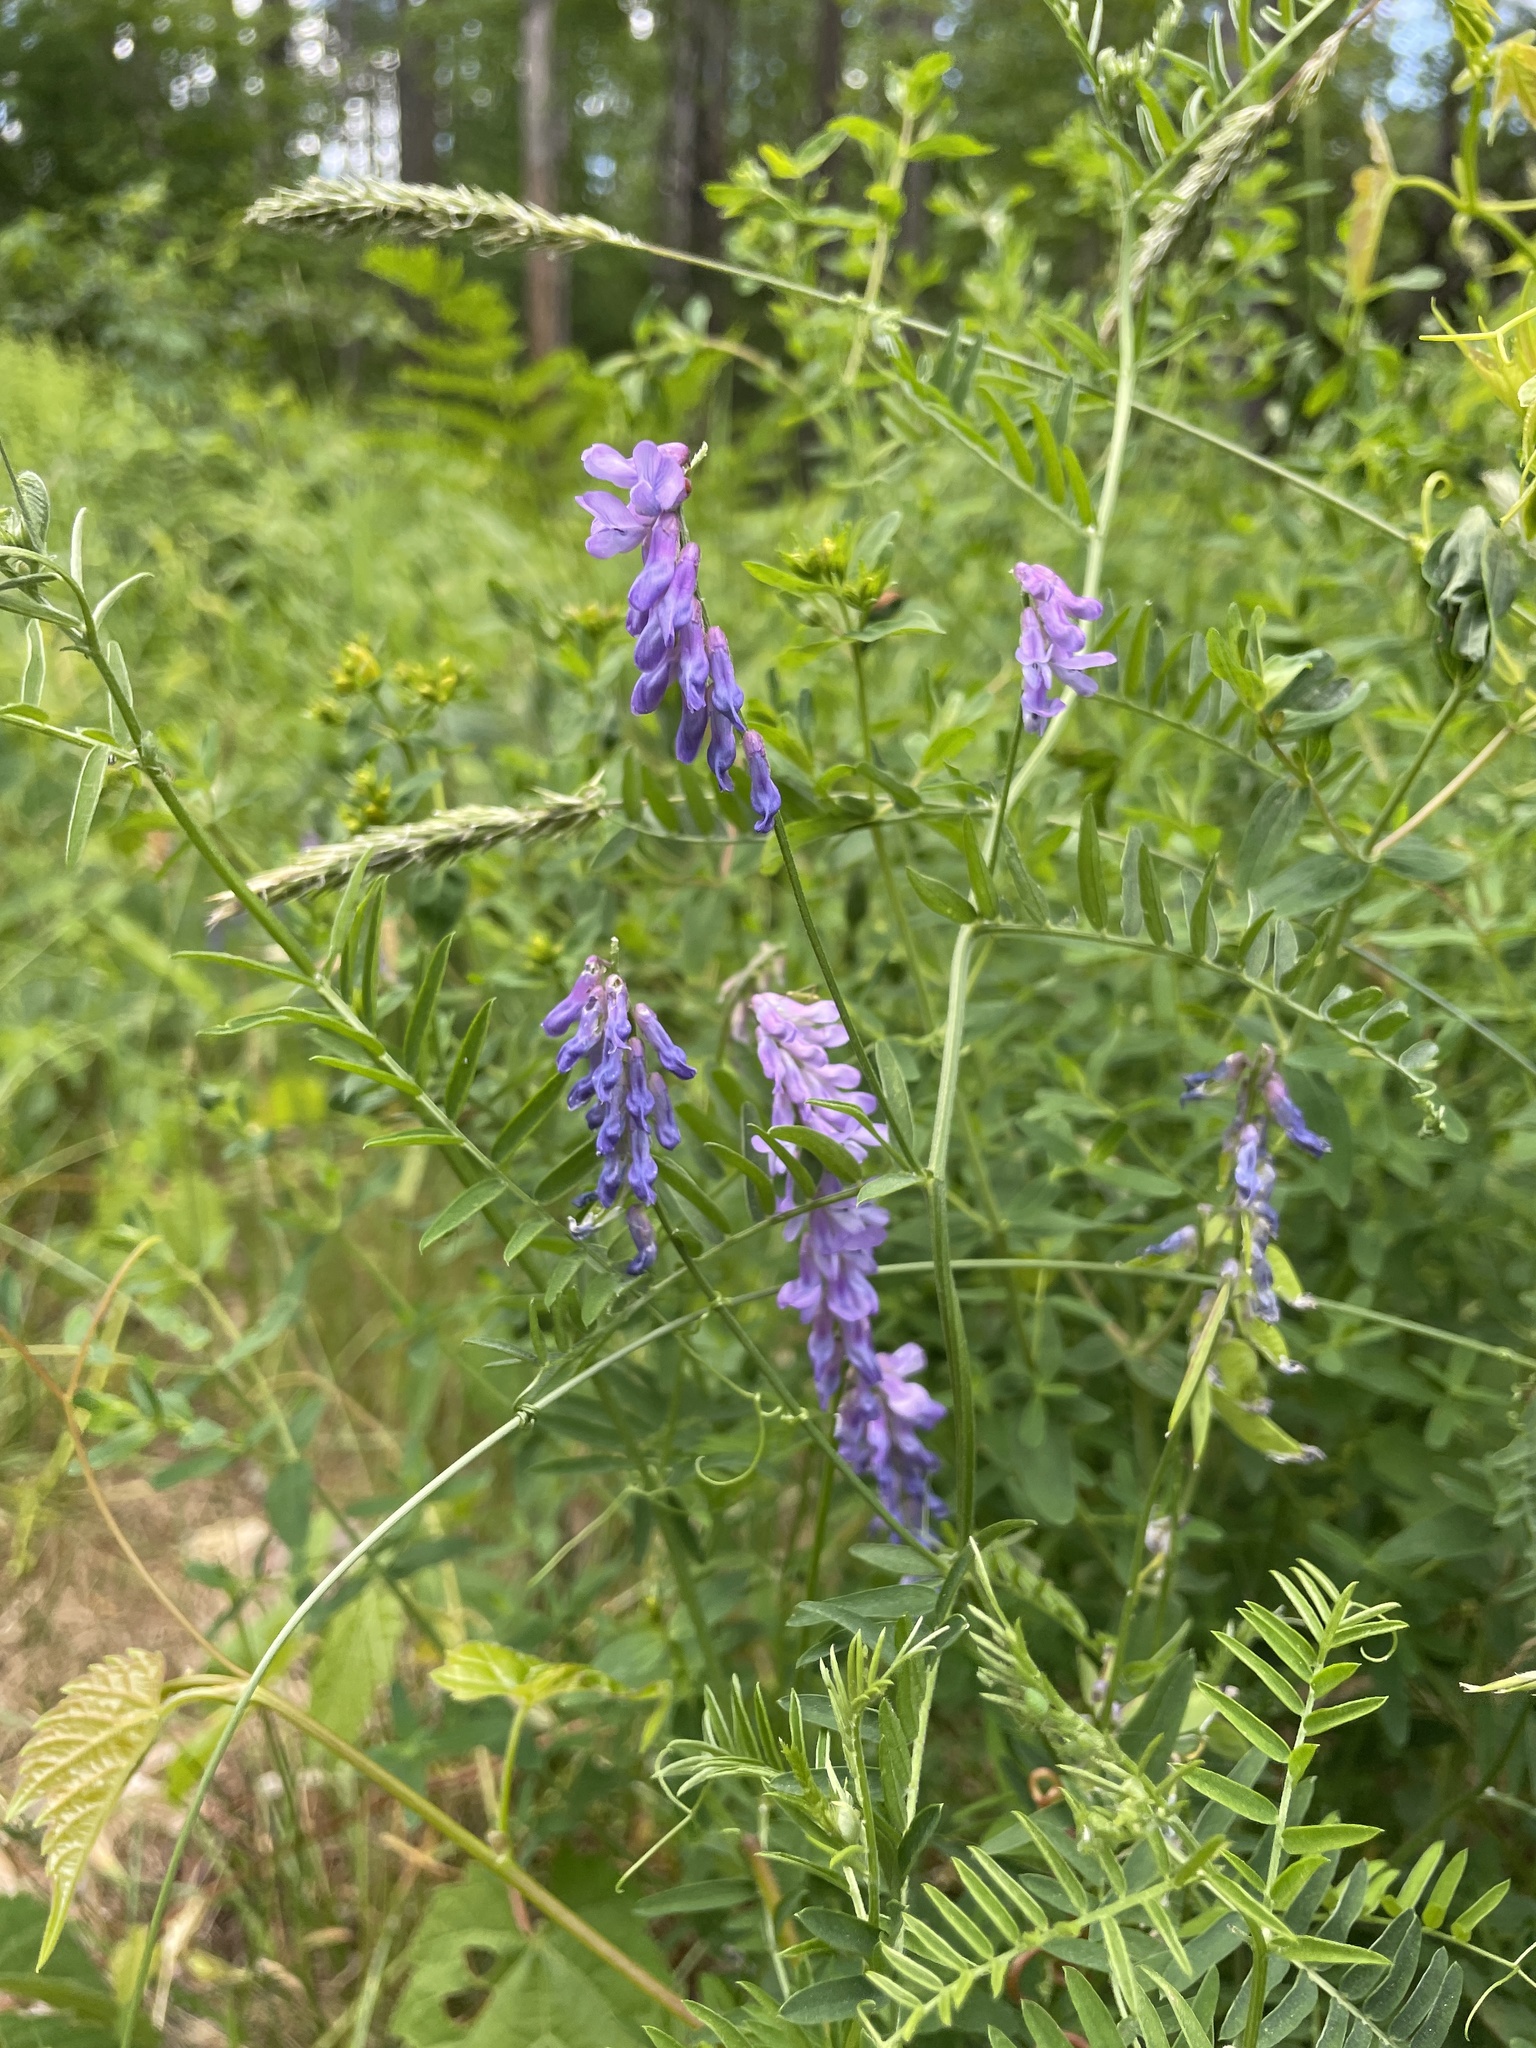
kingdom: Plantae
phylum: Tracheophyta
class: Magnoliopsida
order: Fabales
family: Fabaceae
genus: Vicia
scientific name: Vicia cracca
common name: Bird vetch
